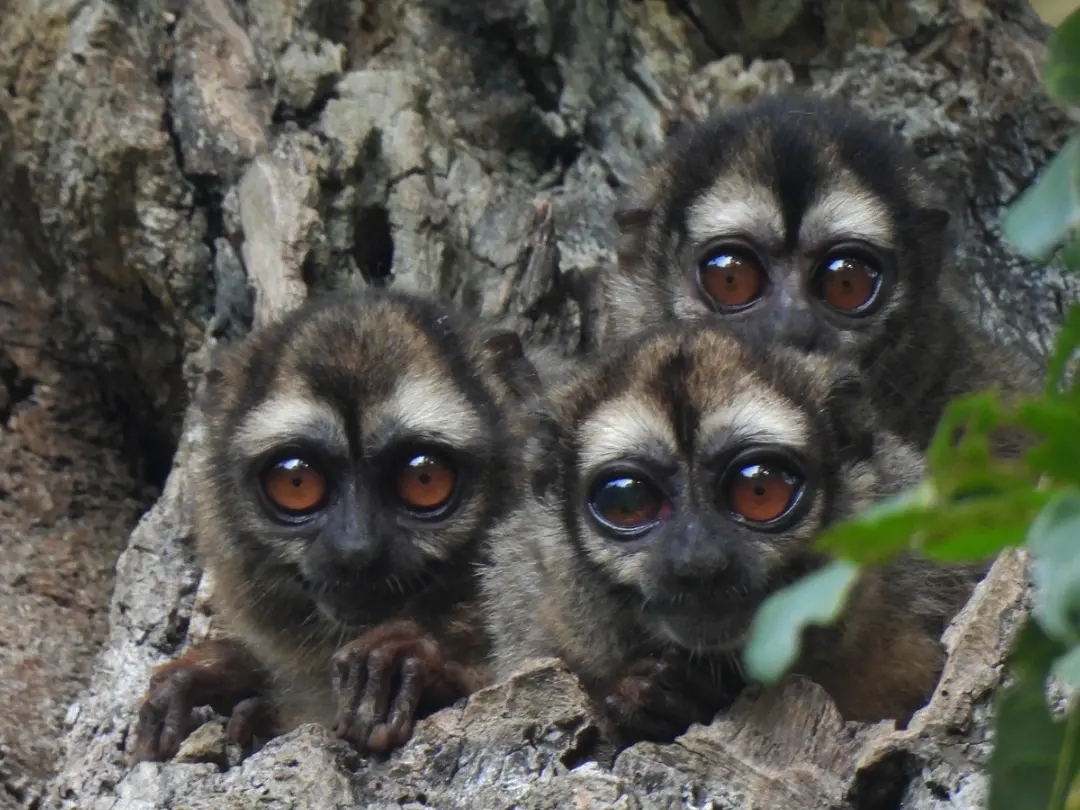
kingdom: Animalia
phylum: Chordata
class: Mammalia
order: Primates
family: Aotidae
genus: Aotus
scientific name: Aotus griseimembra
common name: Douroucouli a bras gris
